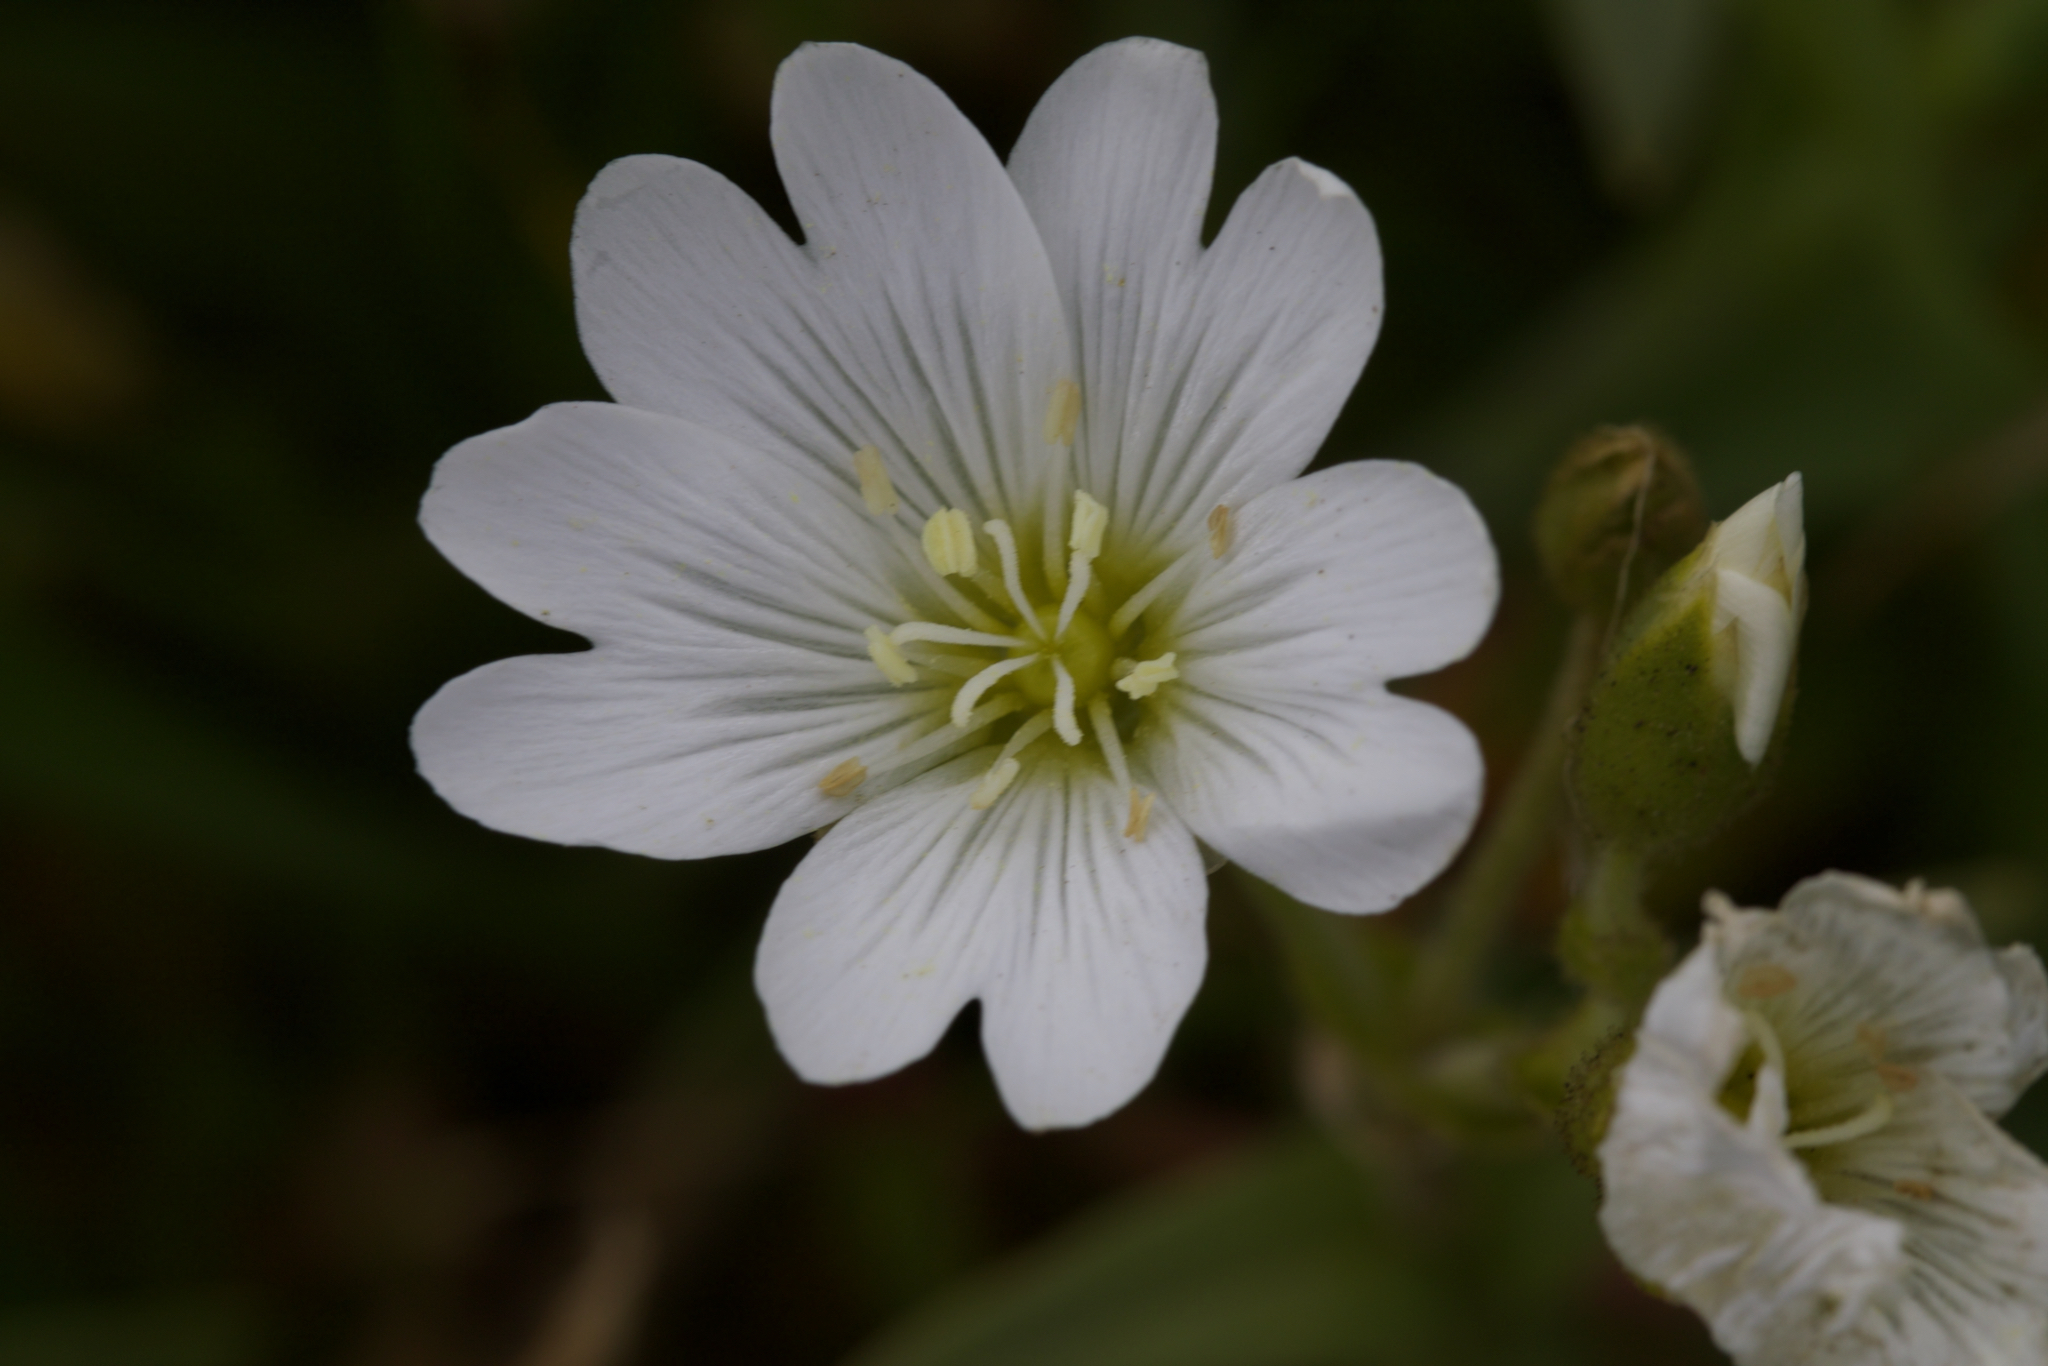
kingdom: Plantae
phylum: Tracheophyta
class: Magnoliopsida
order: Caryophyllales
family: Caryophyllaceae
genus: Cerastium
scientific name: Cerastium viride
